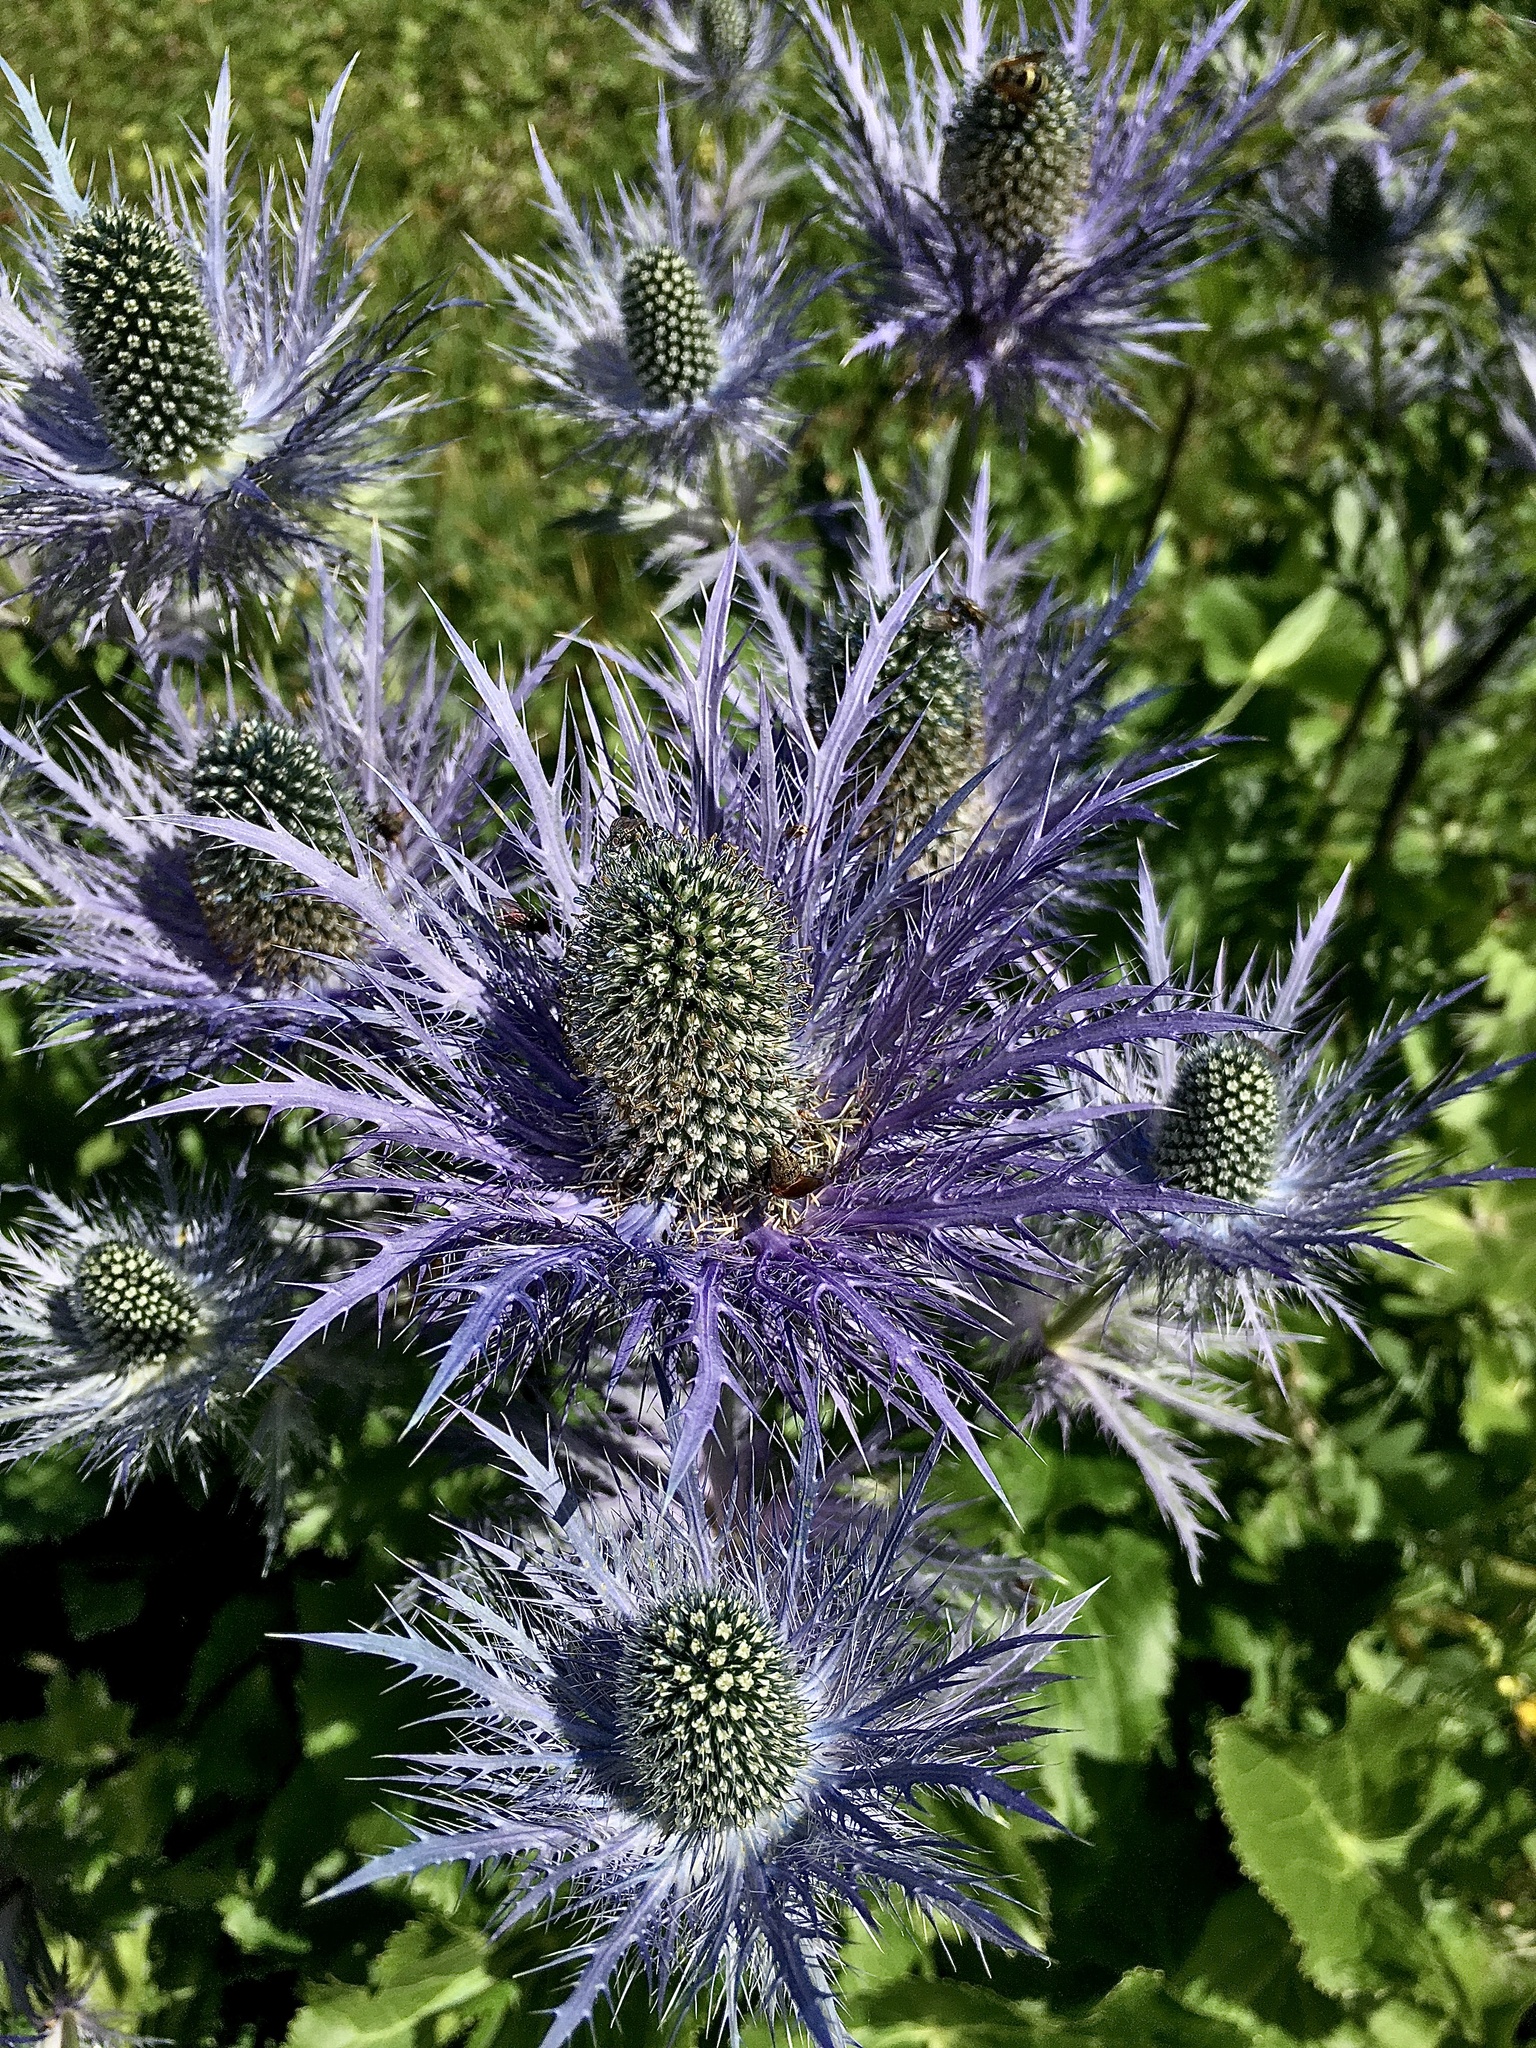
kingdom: Plantae
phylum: Tracheophyta
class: Magnoliopsida
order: Apiales
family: Apiaceae
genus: Eryngium
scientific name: Eryngium alpinum
